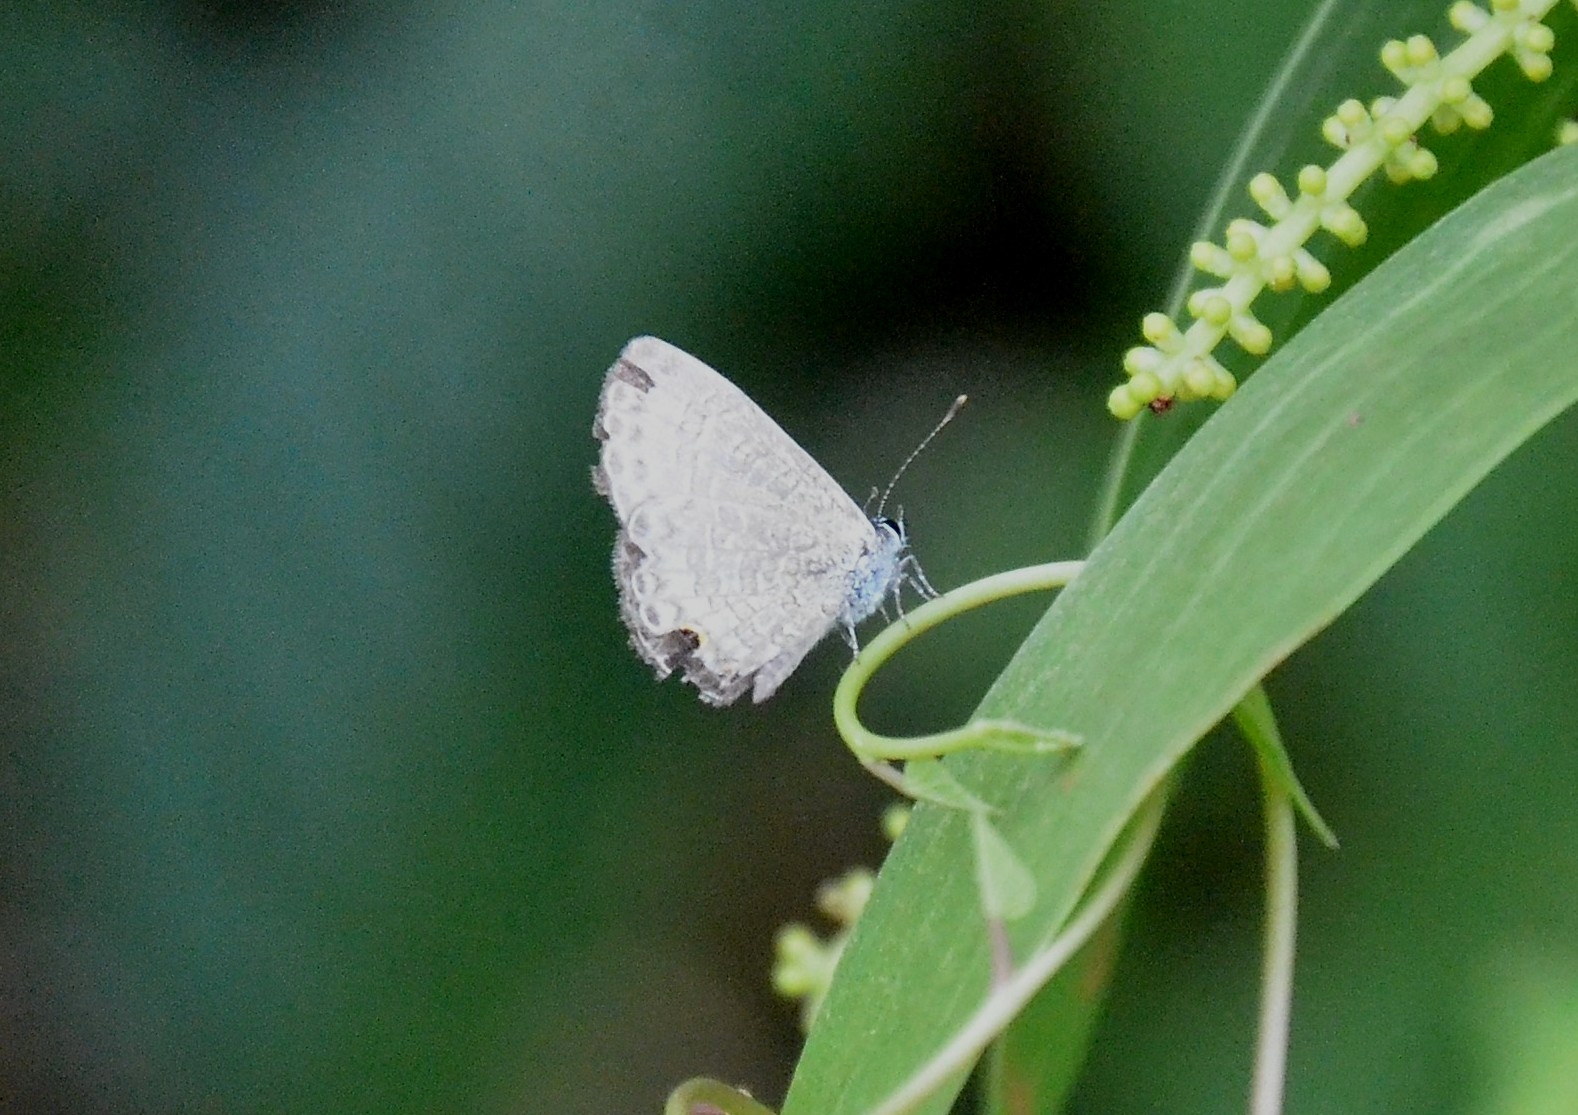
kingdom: Animalia
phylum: Arthropoda
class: Insecta
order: Lepidoptera
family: Lycaenidae
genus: Prosotas
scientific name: Prosotas nora
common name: Common line blue
